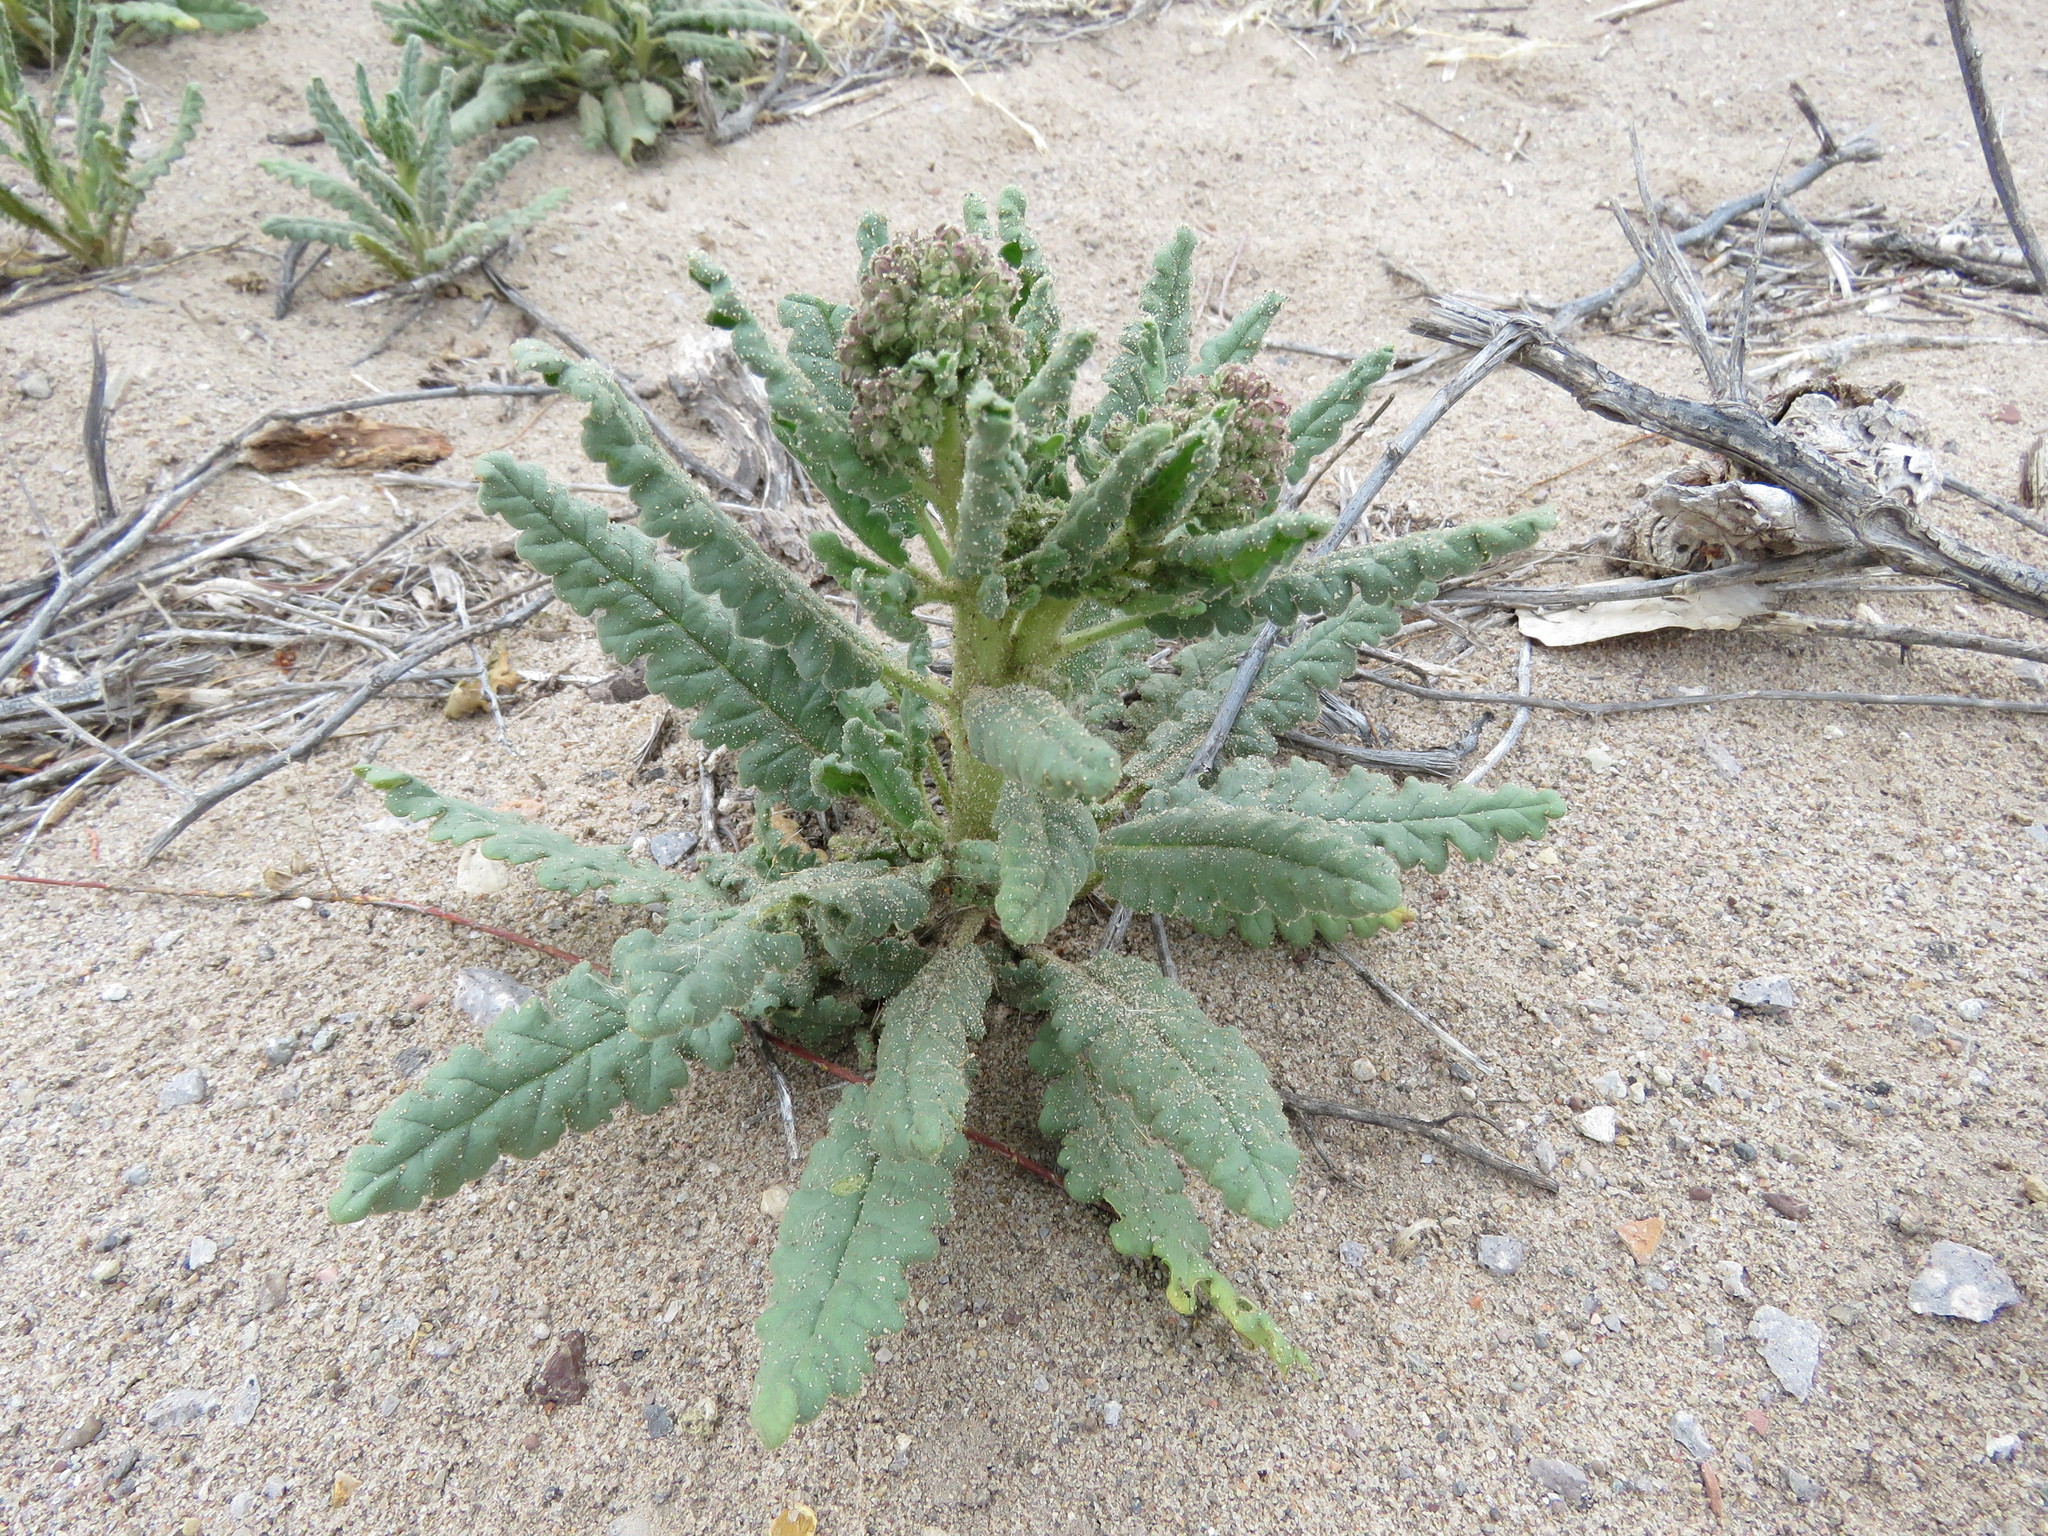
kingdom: Plantae
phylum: Tracheophyta
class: Magnoliopsida
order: Boraginales
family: Hydrophyllaceae
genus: Phacelia
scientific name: Phacelia integrifolia
